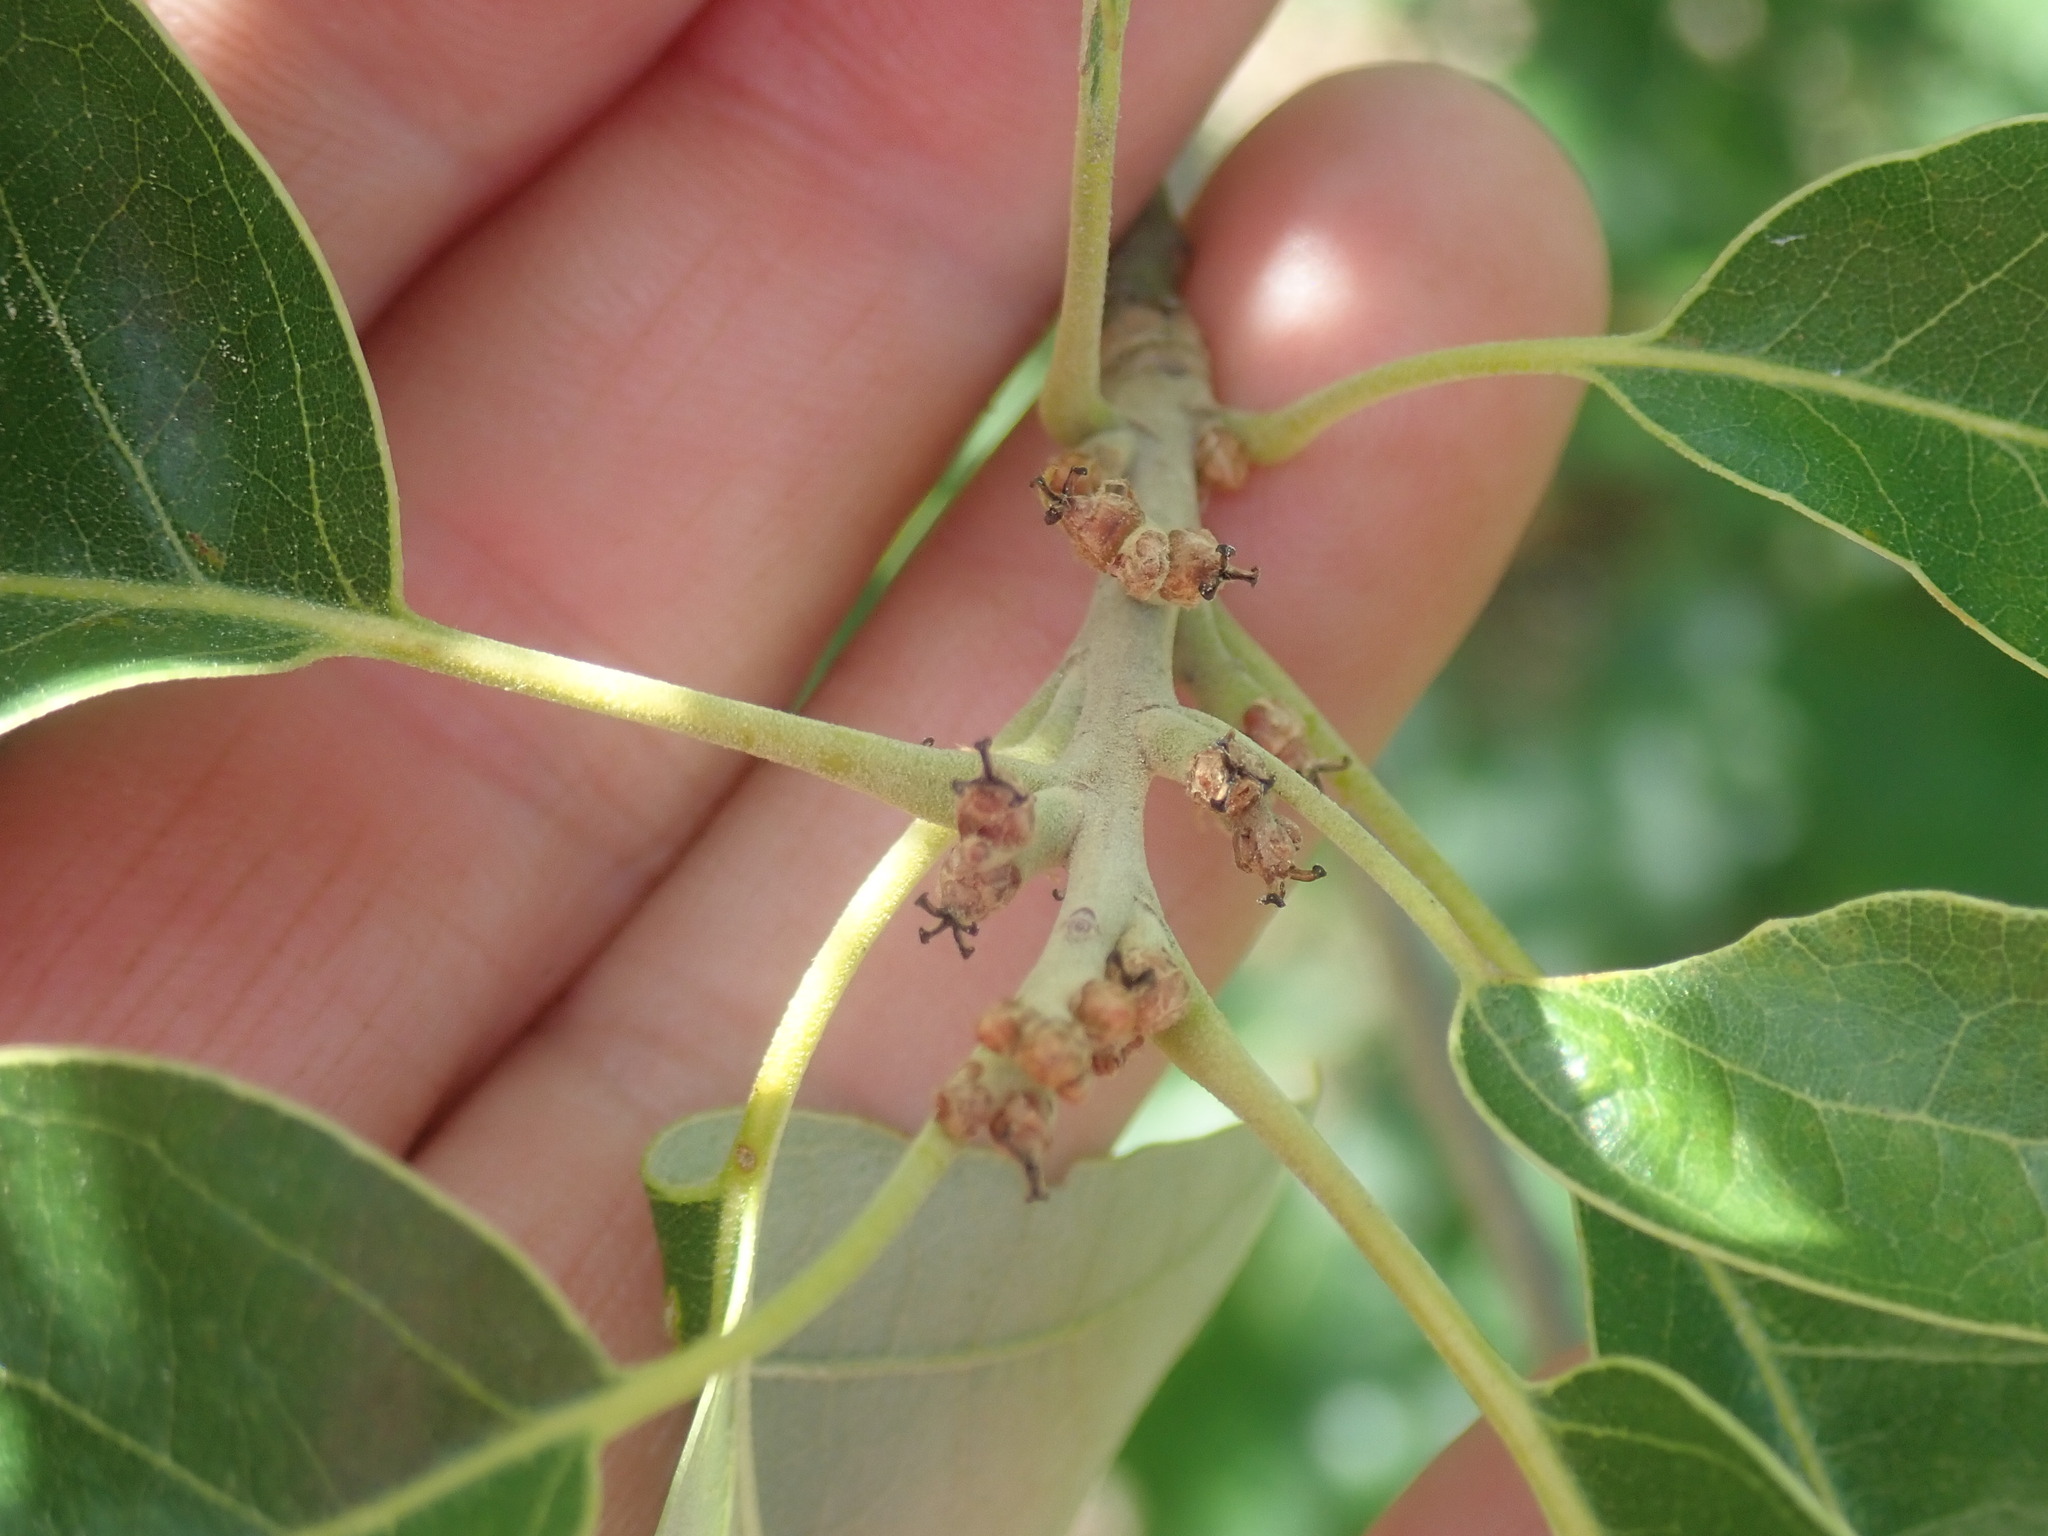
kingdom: Plantae
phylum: Tracheophyta
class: Magnoliopsida
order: Fagales
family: Fagaceae
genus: Quercus
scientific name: Quercus ilicifolia
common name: Bear oak
